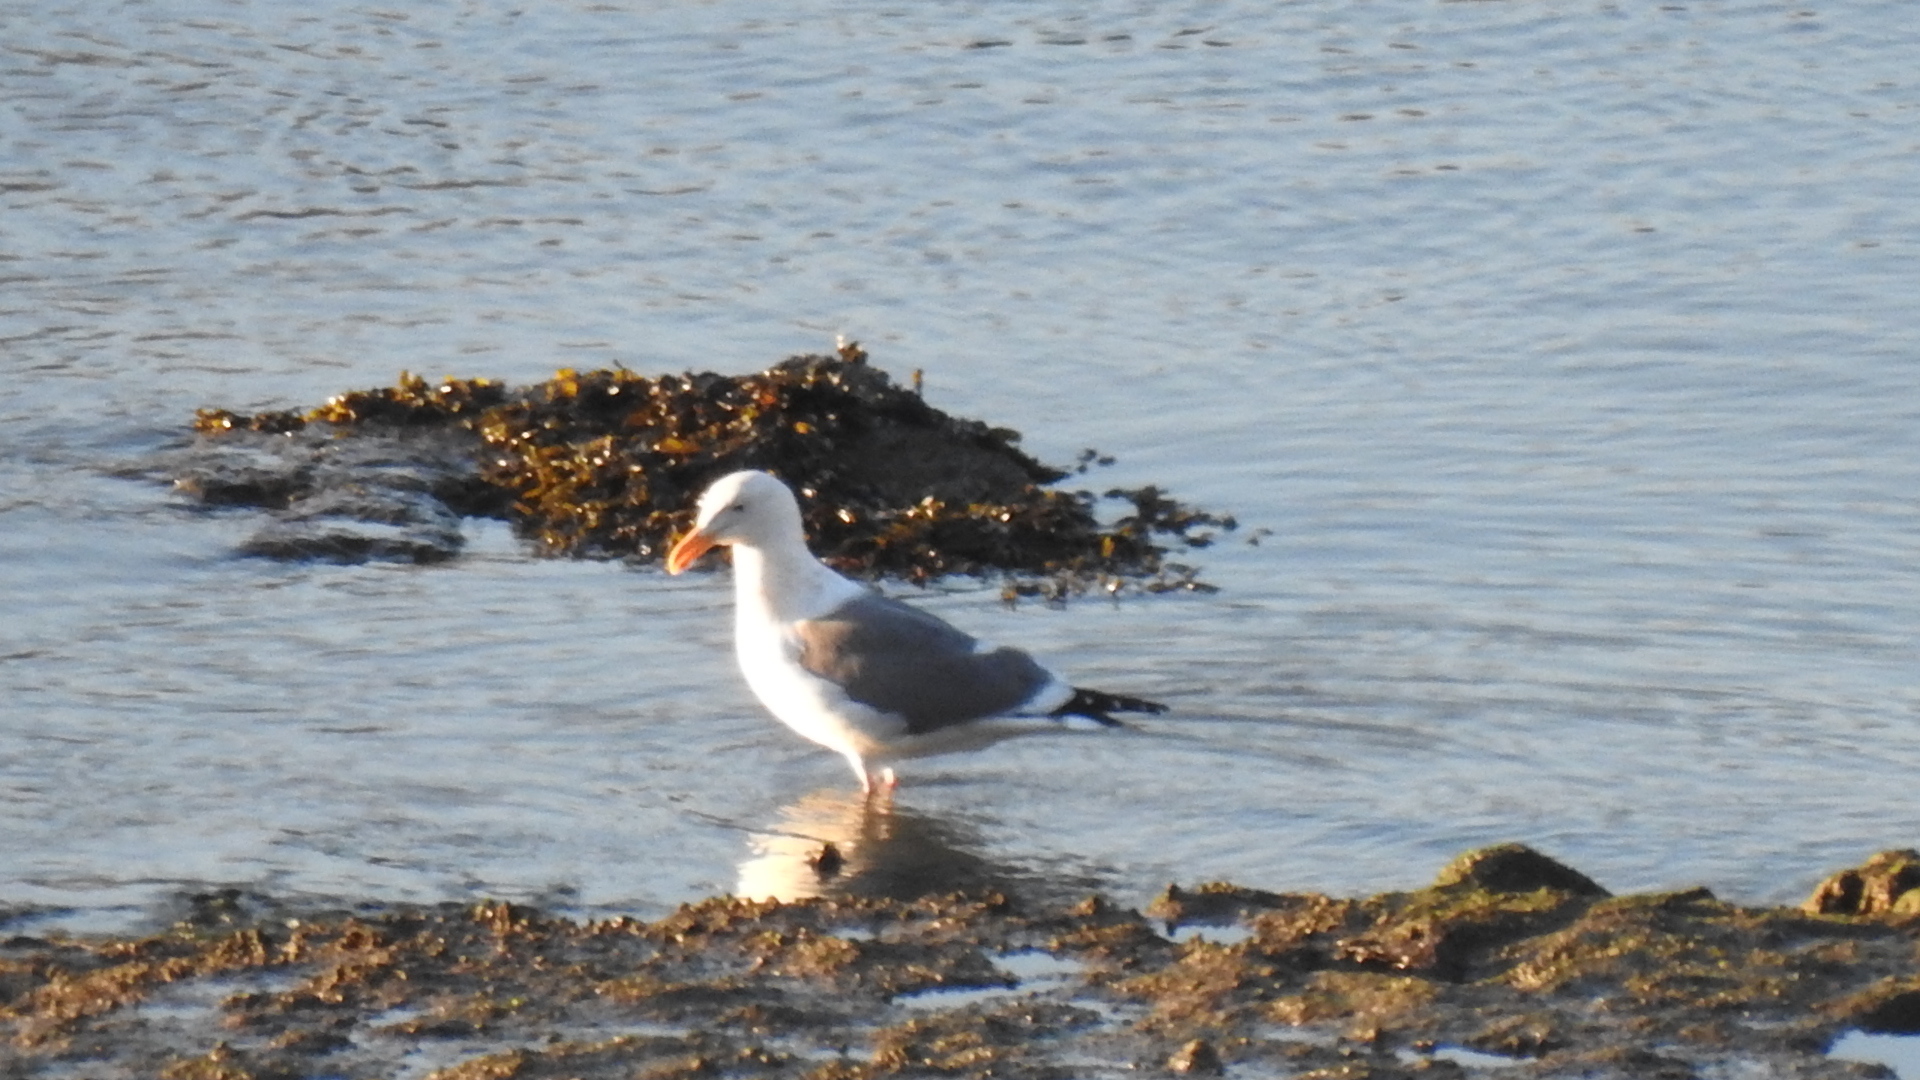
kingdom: Animalia
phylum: Chordata
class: Aves
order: Charadriiformes
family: Laridae
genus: Larus
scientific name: Larus occidentalis
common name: Western gull
